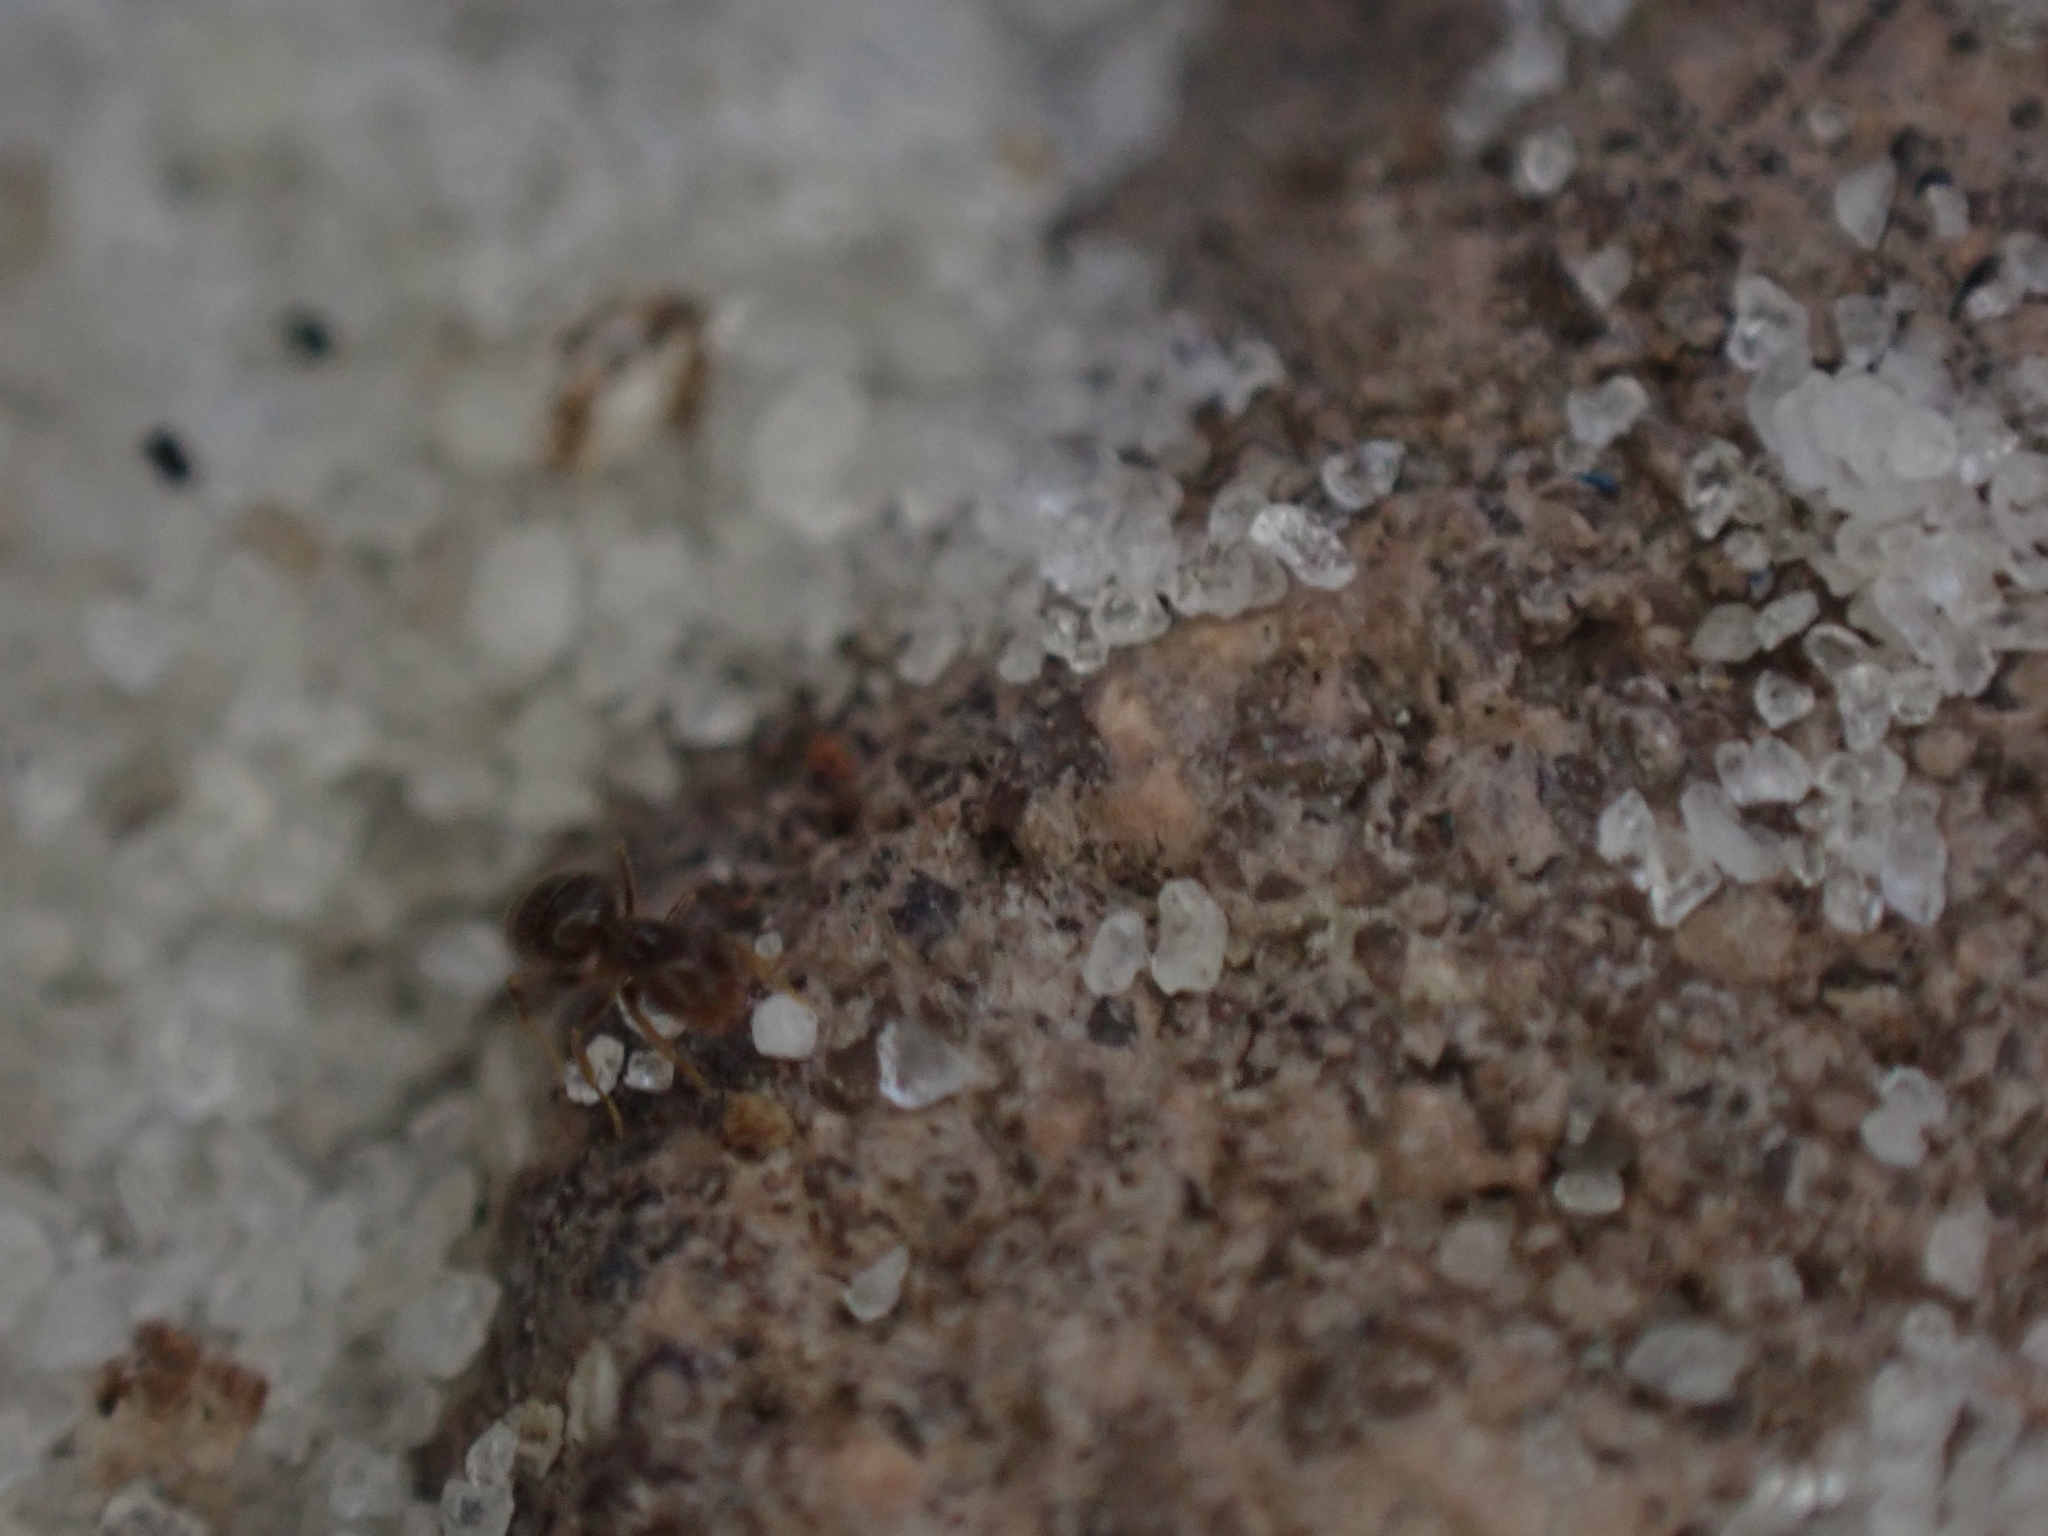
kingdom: Animalia
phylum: Arthropoda
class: Insecta
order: Hymenoptera
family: Formicidae
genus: Brachymyrmex
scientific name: Brachymyrmex obscurior
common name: Obscure rover ant
